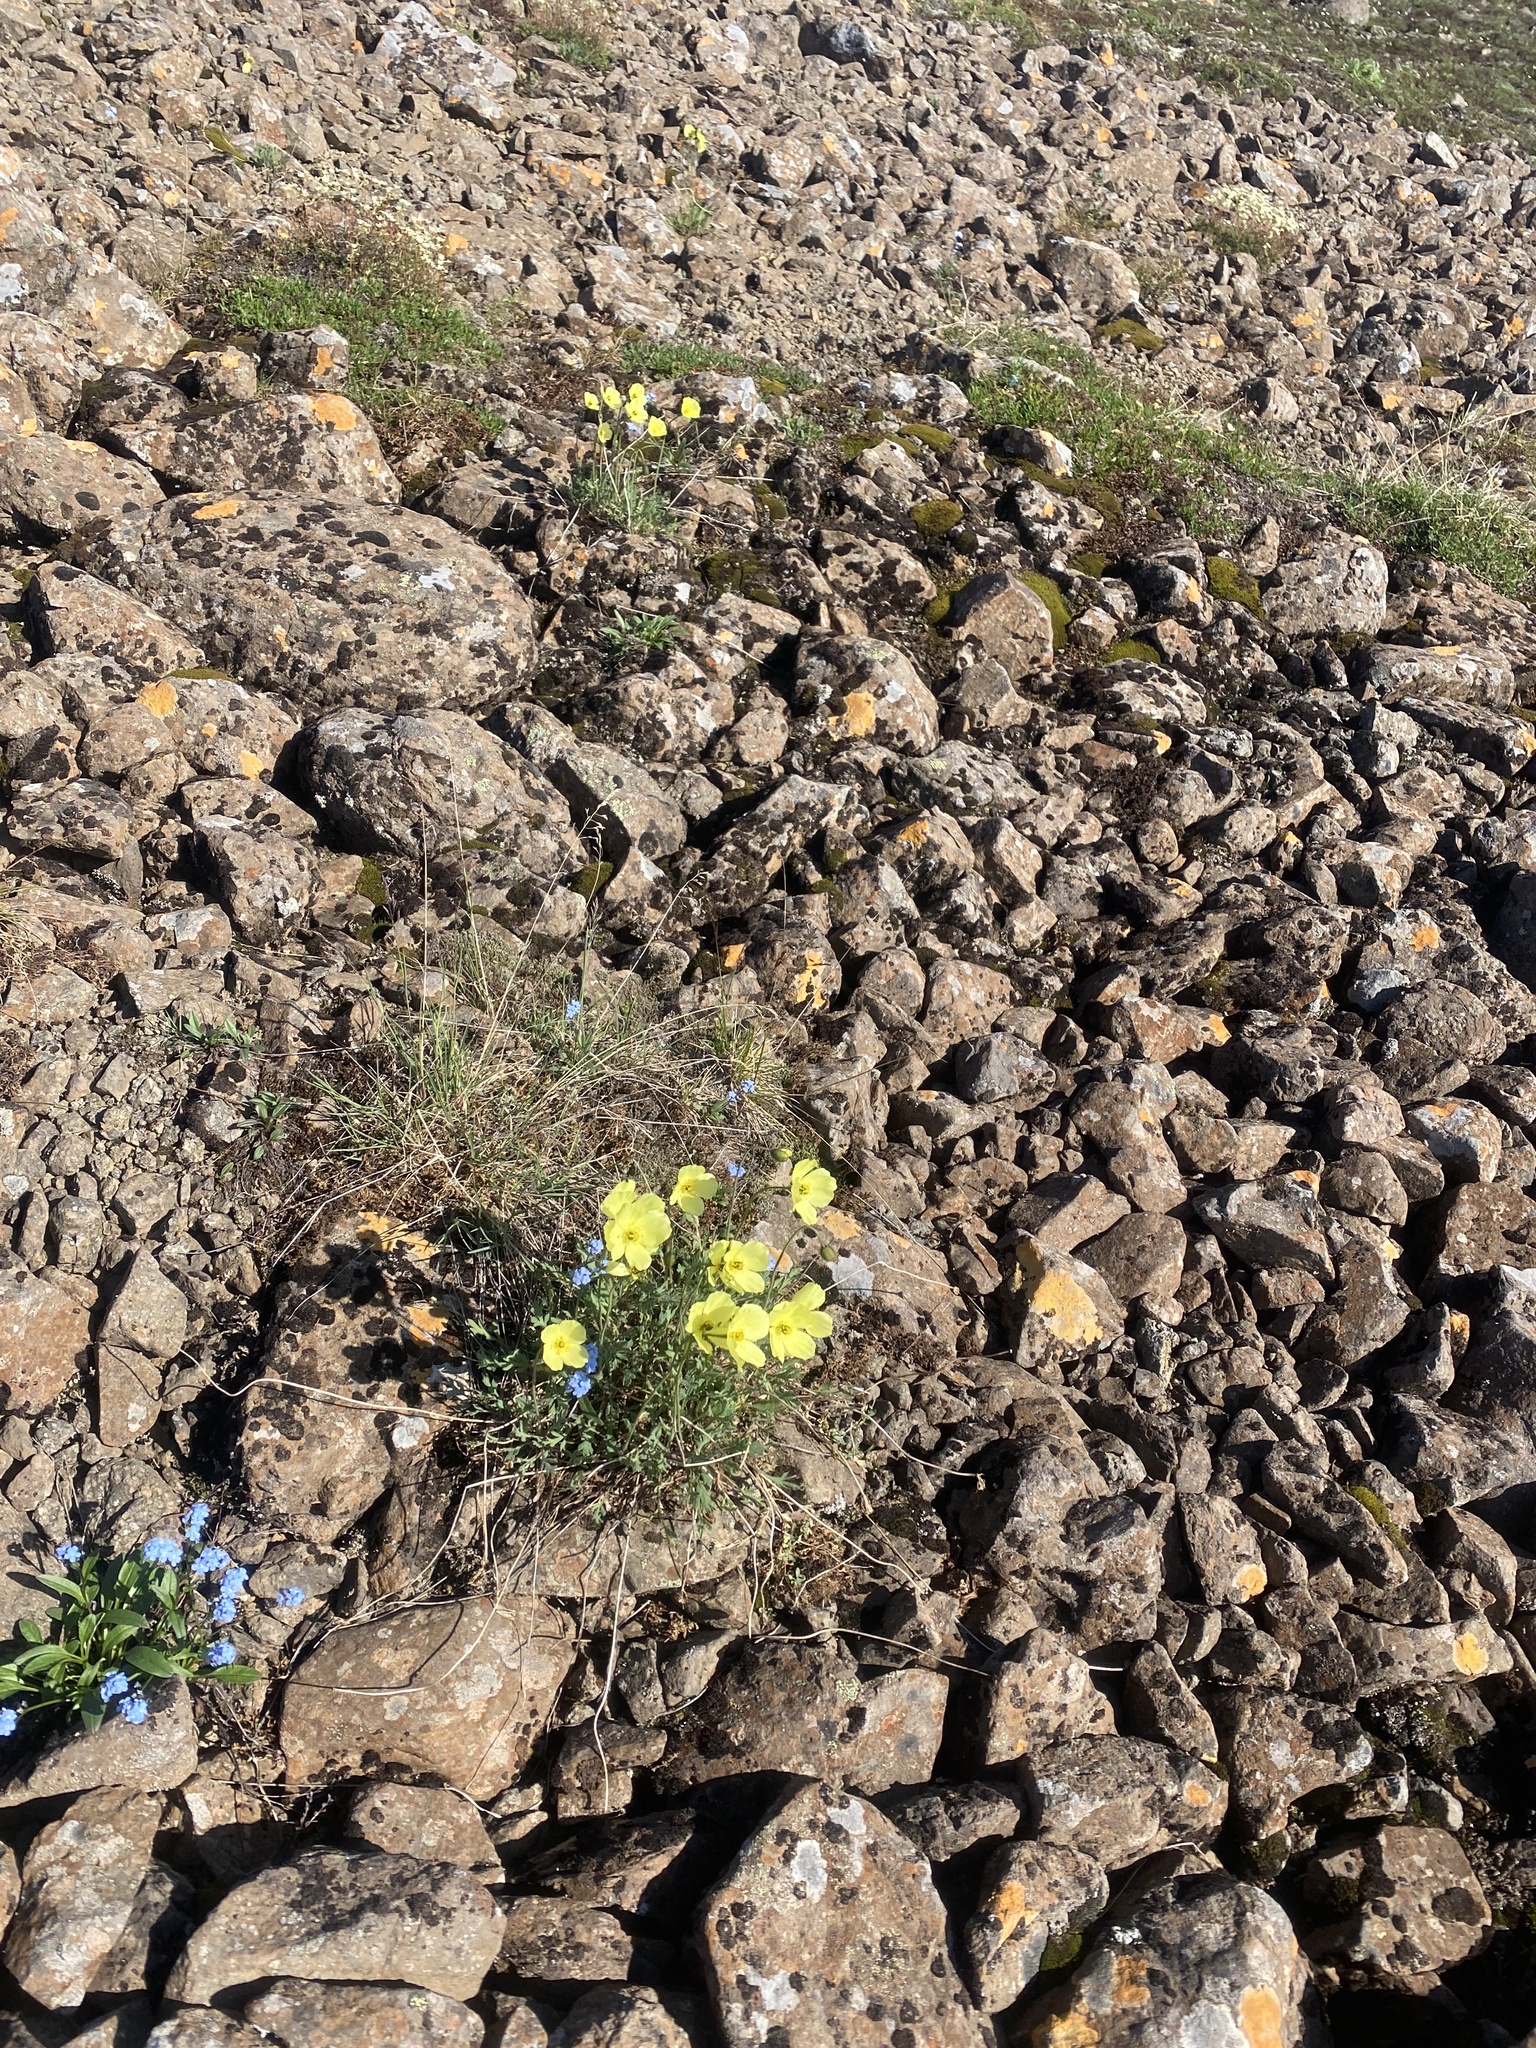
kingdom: Plantae
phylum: Tracheophyta
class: Magnoliopsida
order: Ranunculales
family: Papaveraceae
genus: Papaver
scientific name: Papaver pulvinatum
